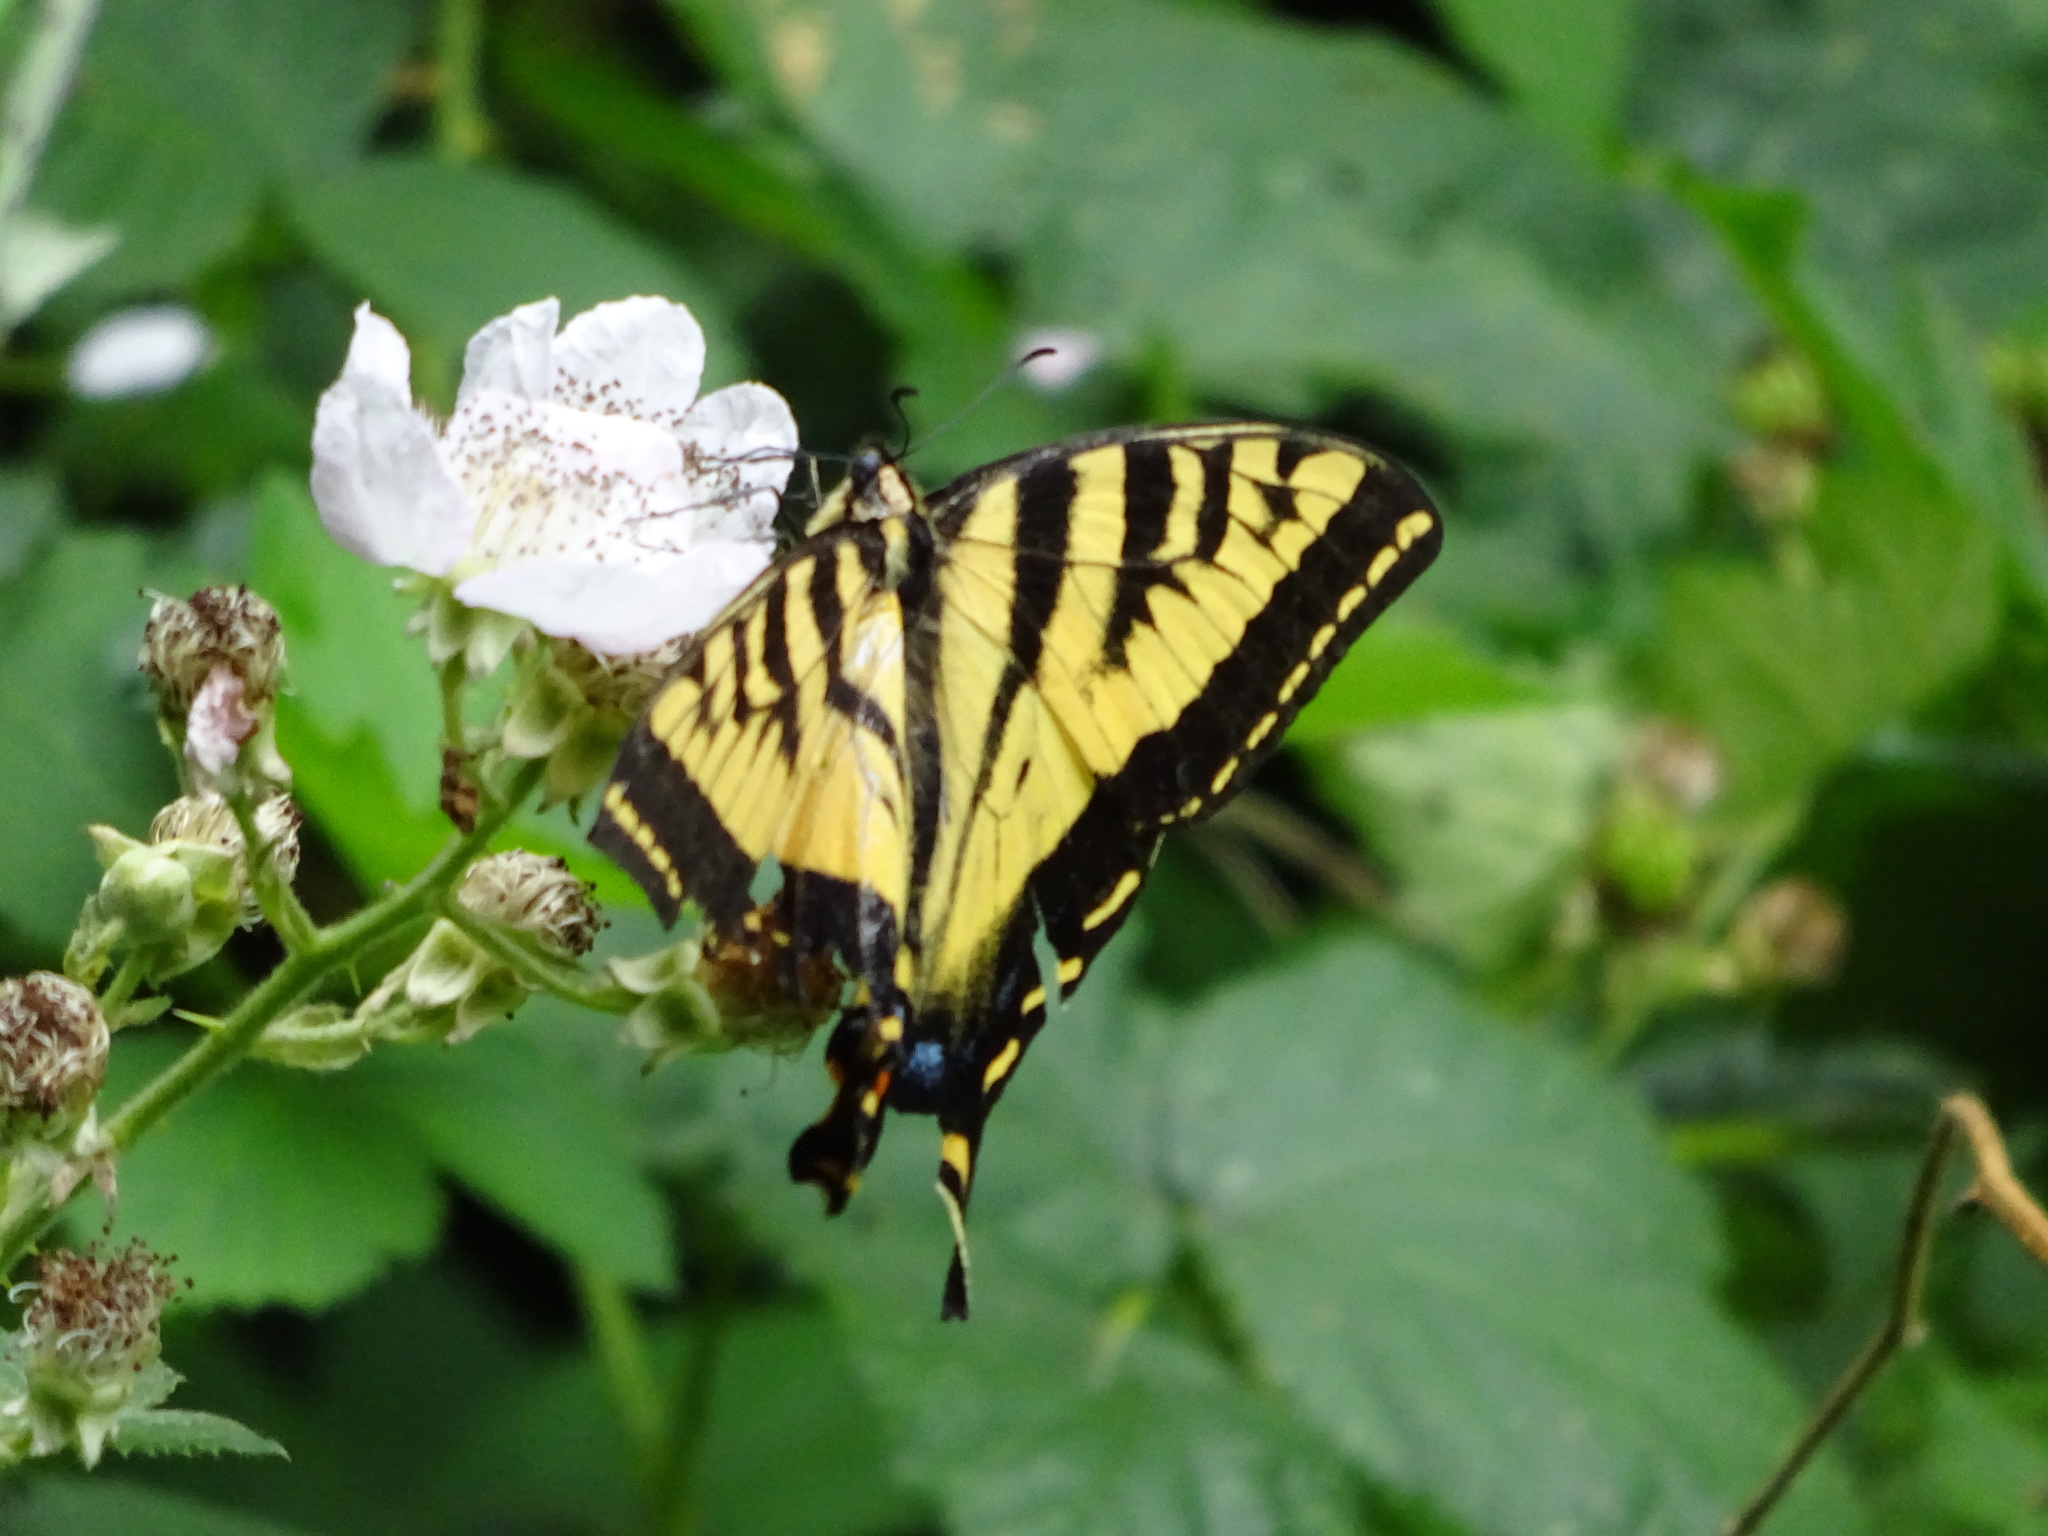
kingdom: Animalia
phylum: Arthropoda
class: Insecta
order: Lepidoptera
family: Papilionidae
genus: Papilio
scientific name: Papilio rutulus
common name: Western tiger swallowtail
